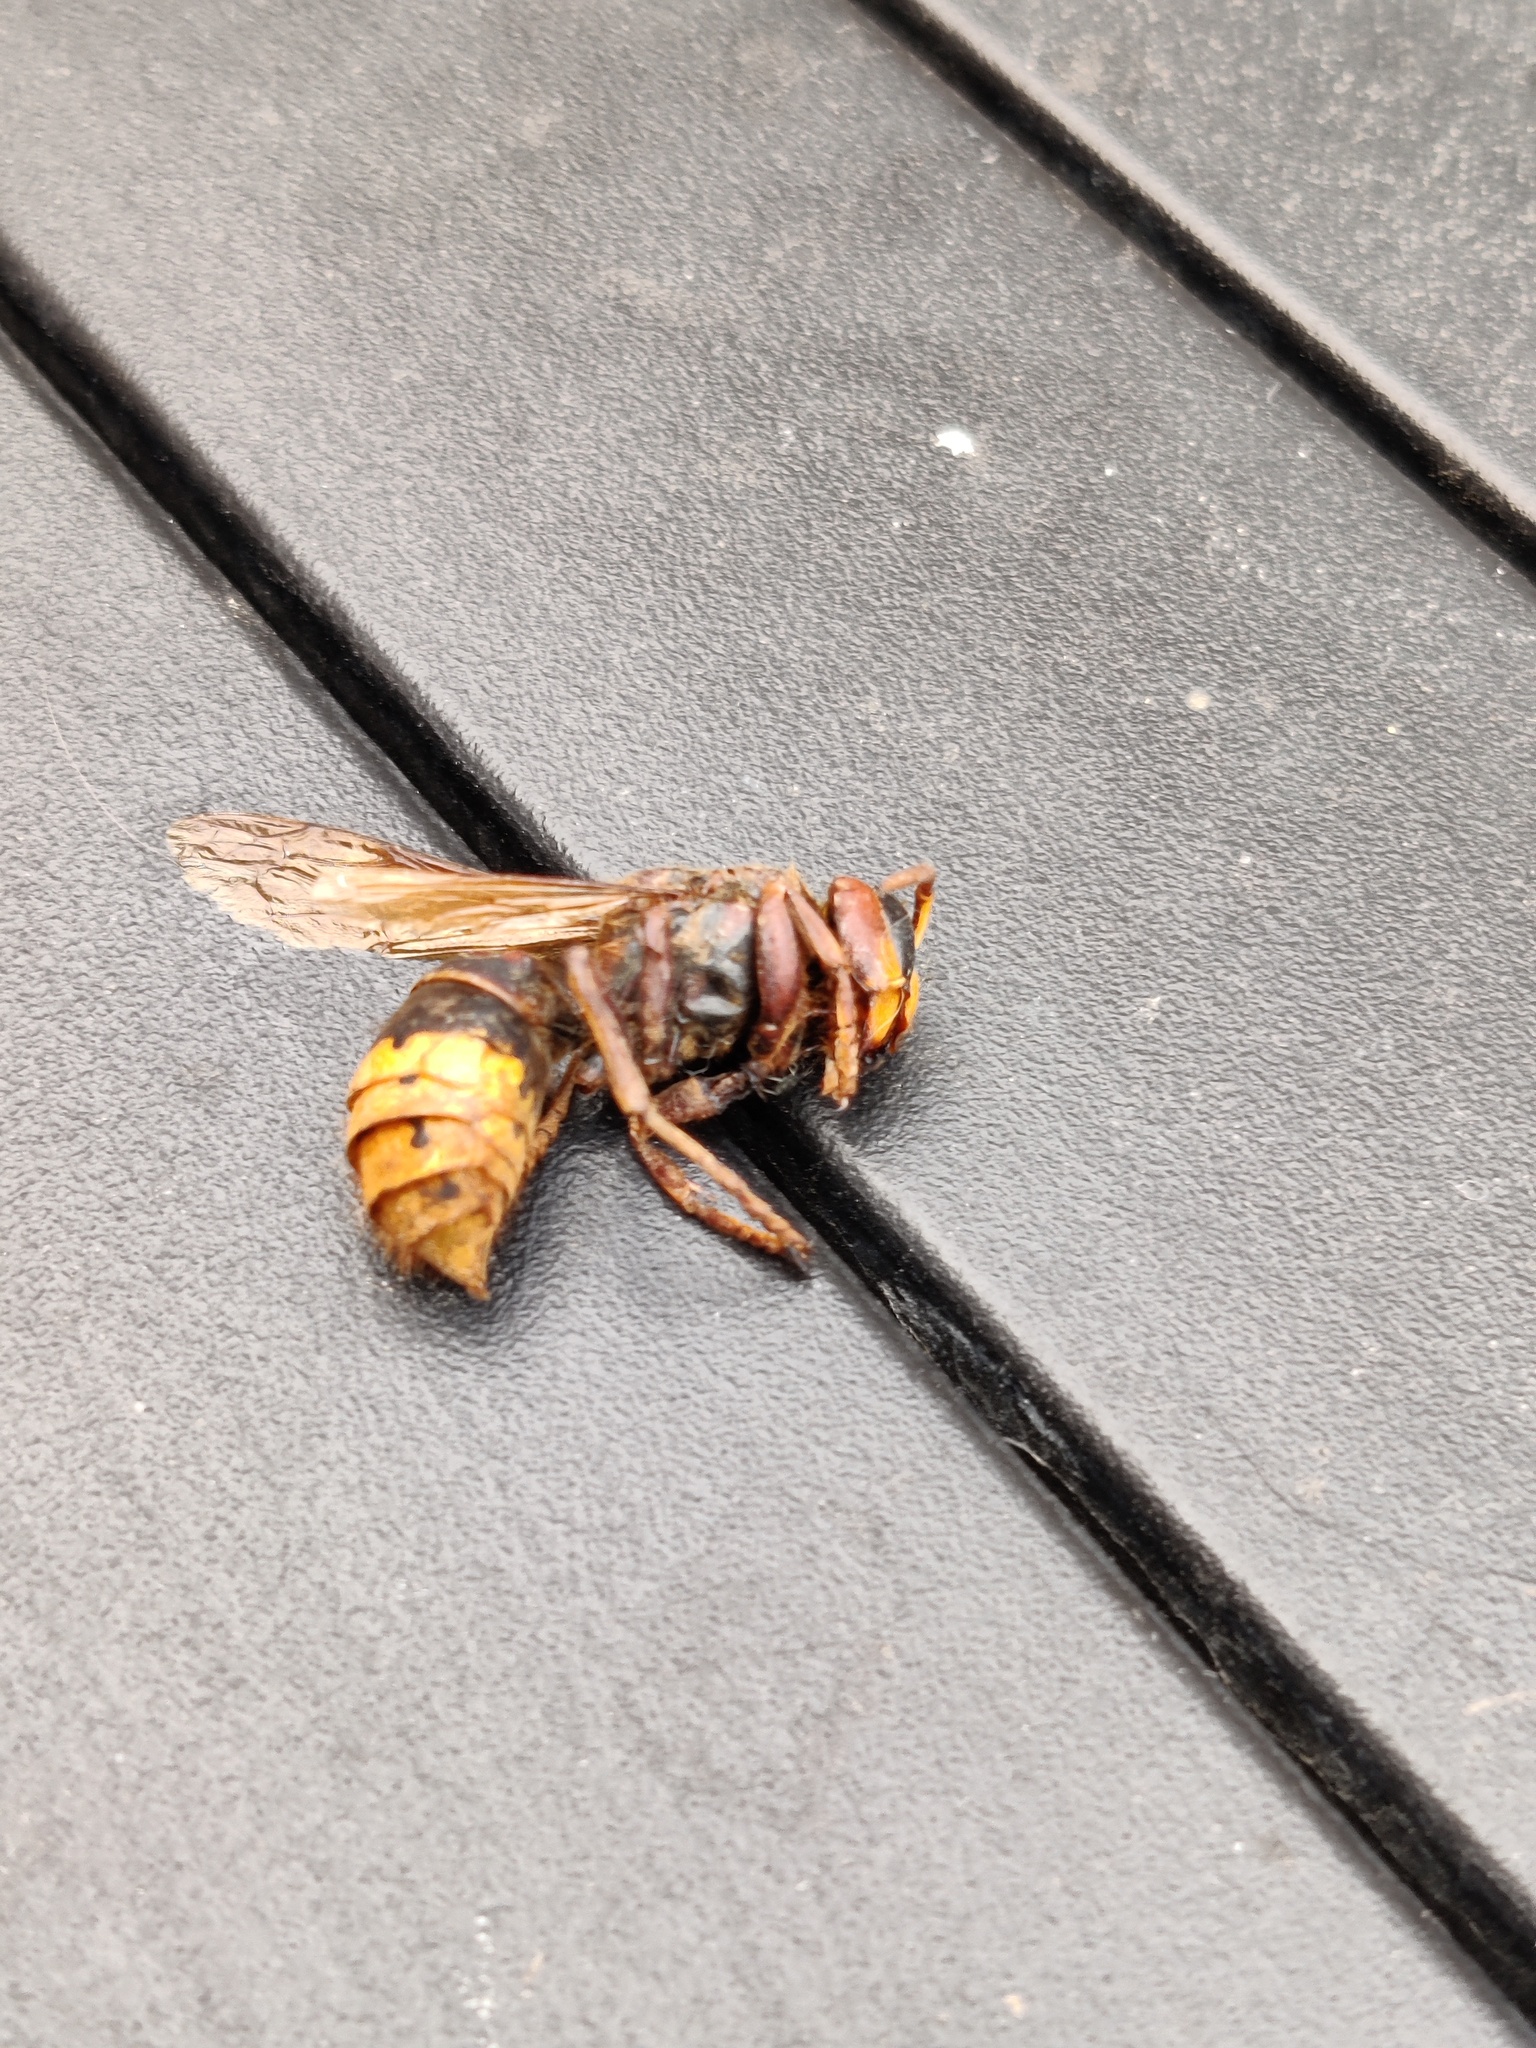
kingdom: Animalia
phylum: Arthropoda
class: Insecta
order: Hymenoptera
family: Vespidae
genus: Vespa
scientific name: Vespa crabro
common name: Hornet
